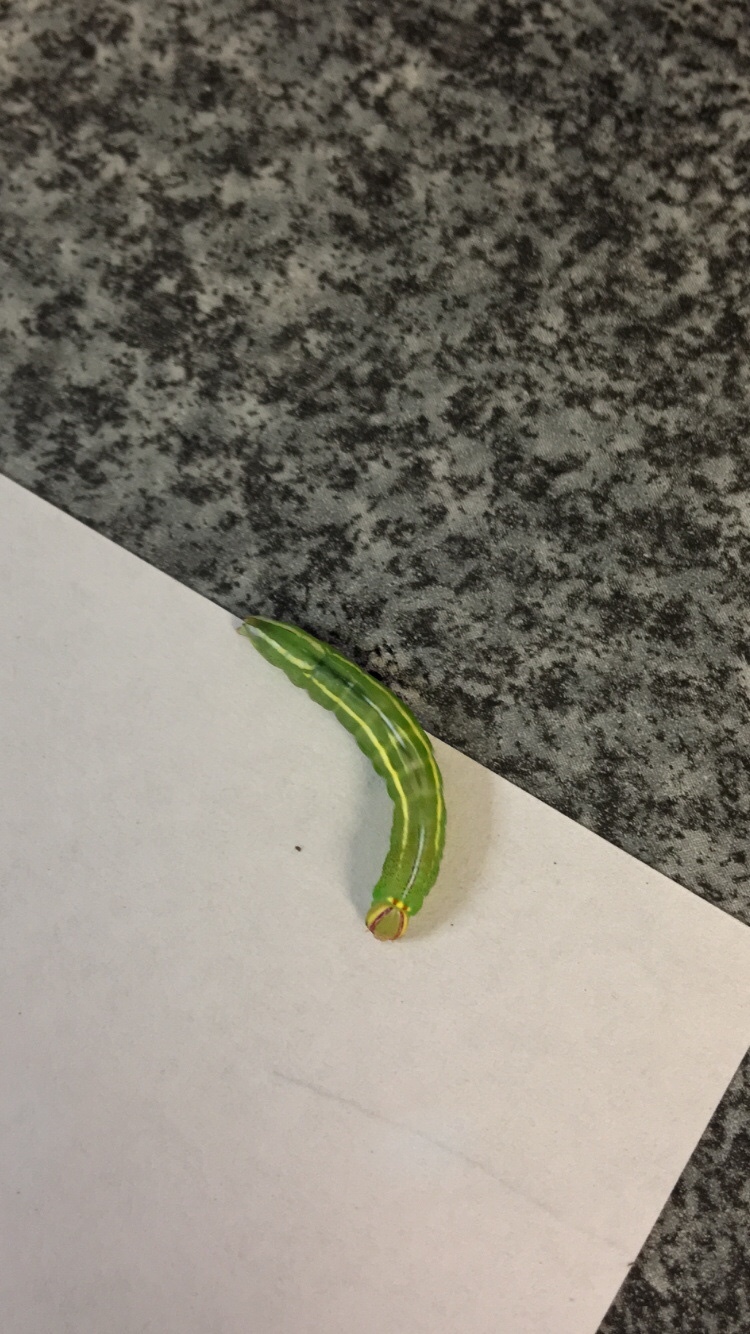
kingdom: Animalia
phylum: Arthropoda
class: Insecta
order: Lepidoptera
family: Notodontidae
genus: Disphragis
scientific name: Disphragis Cecrita guttivitta
